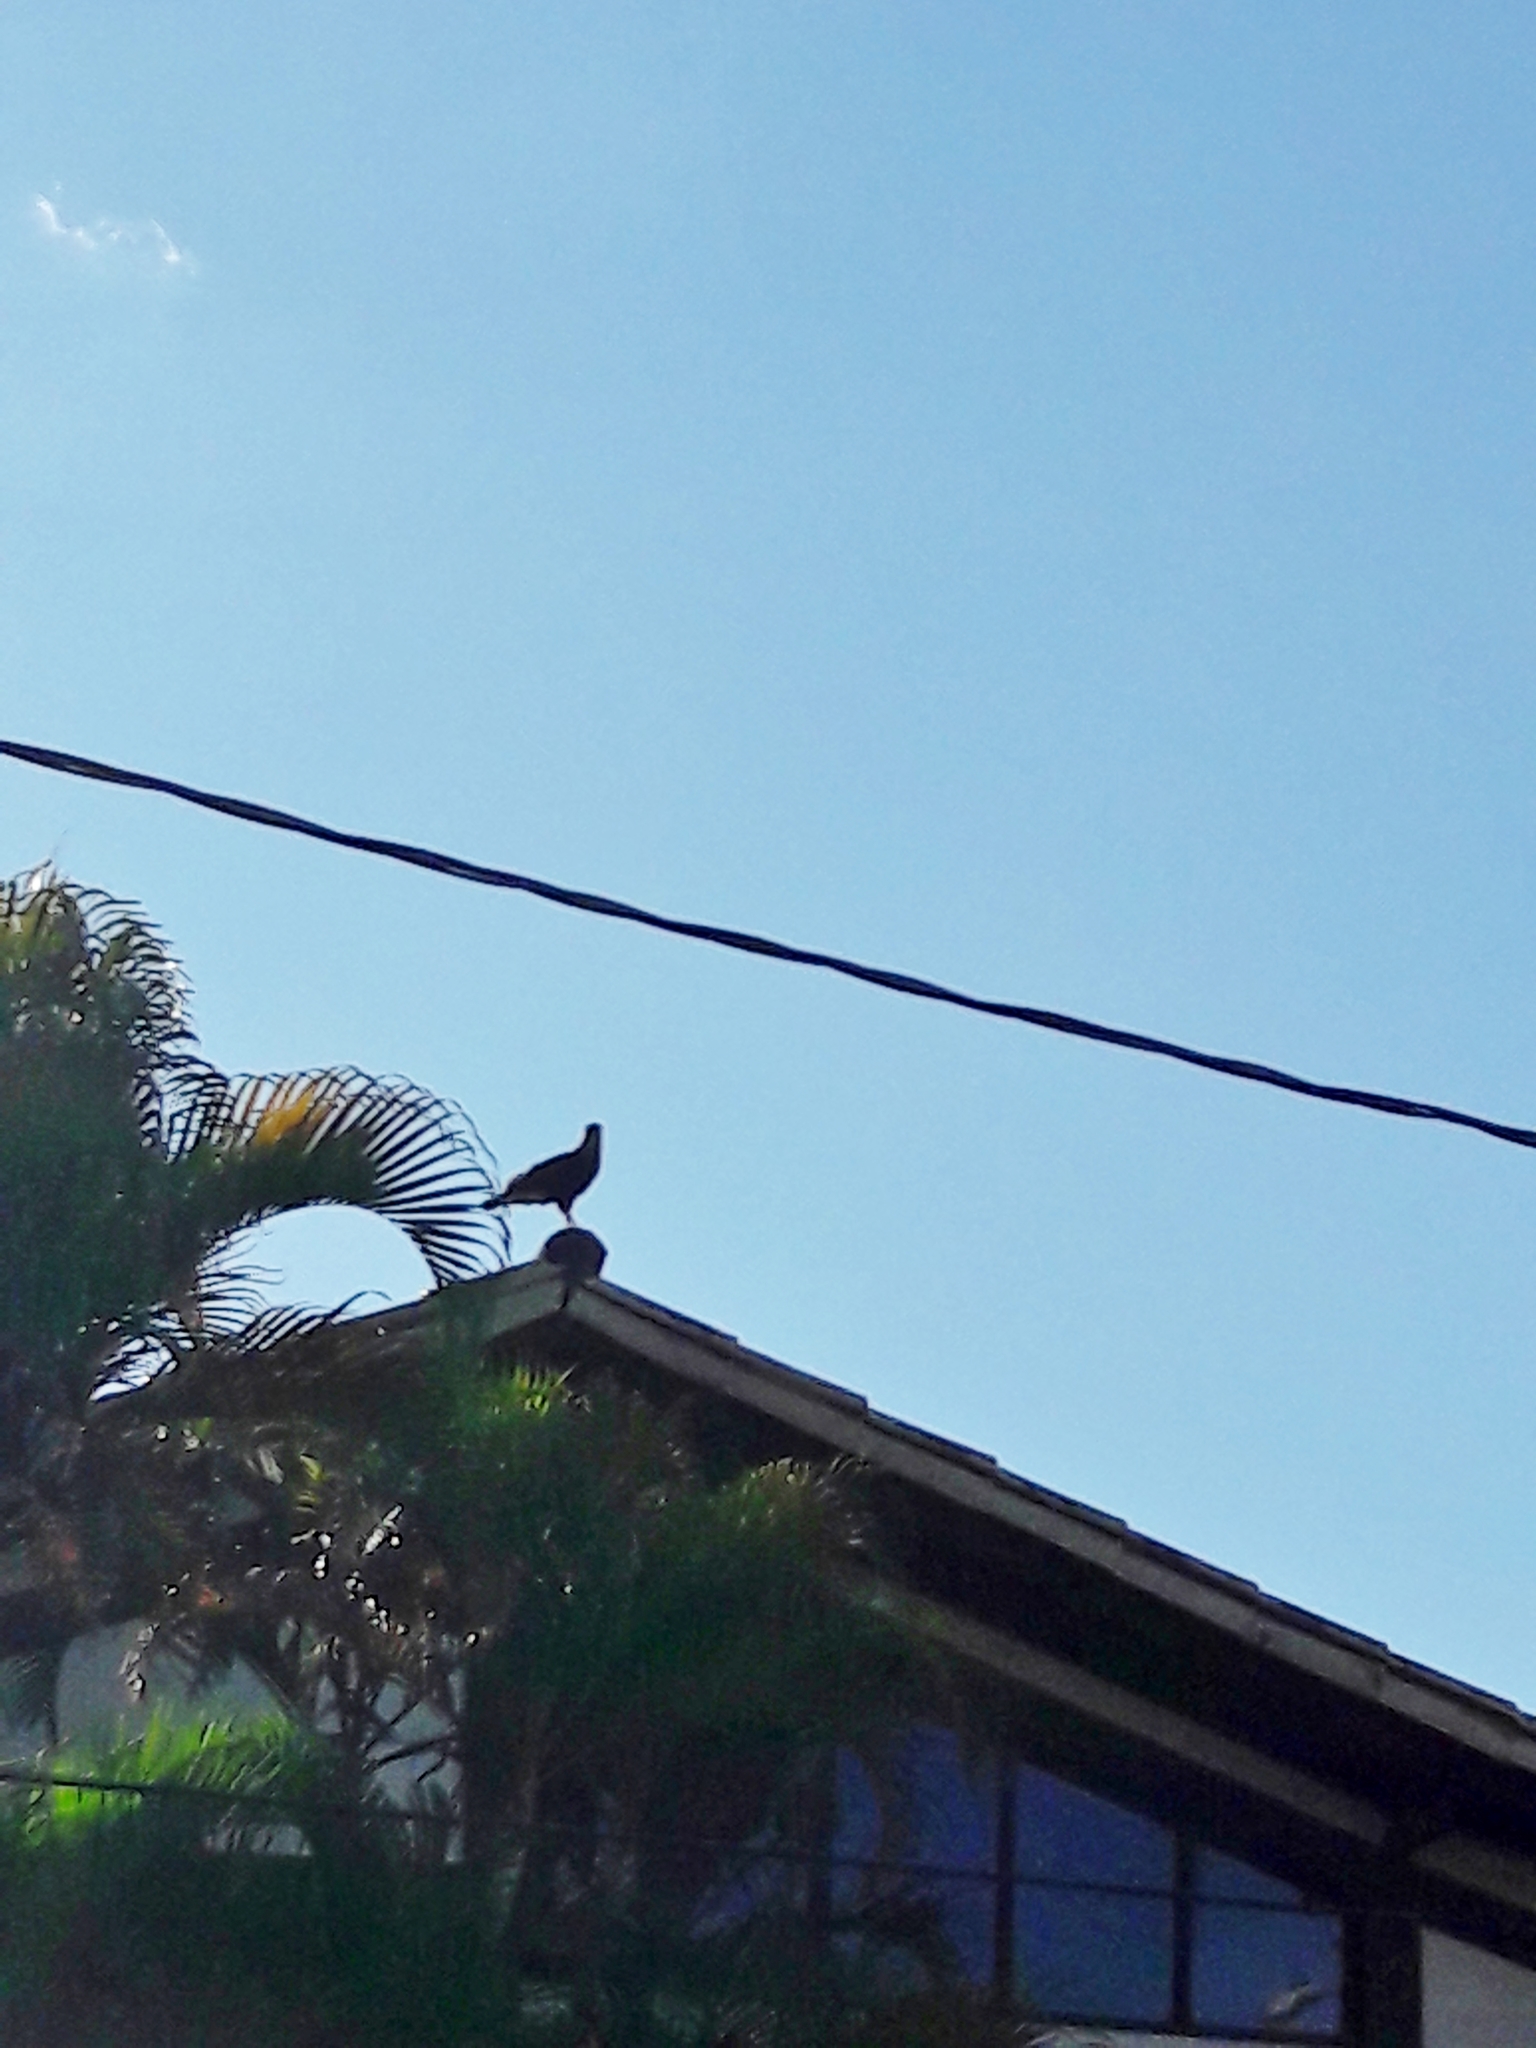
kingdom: Animalia
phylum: Chordata
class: Aves
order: Falconiformes
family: Falconidae
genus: Caracara
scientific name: Caracara plancus
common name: Southern caracara
